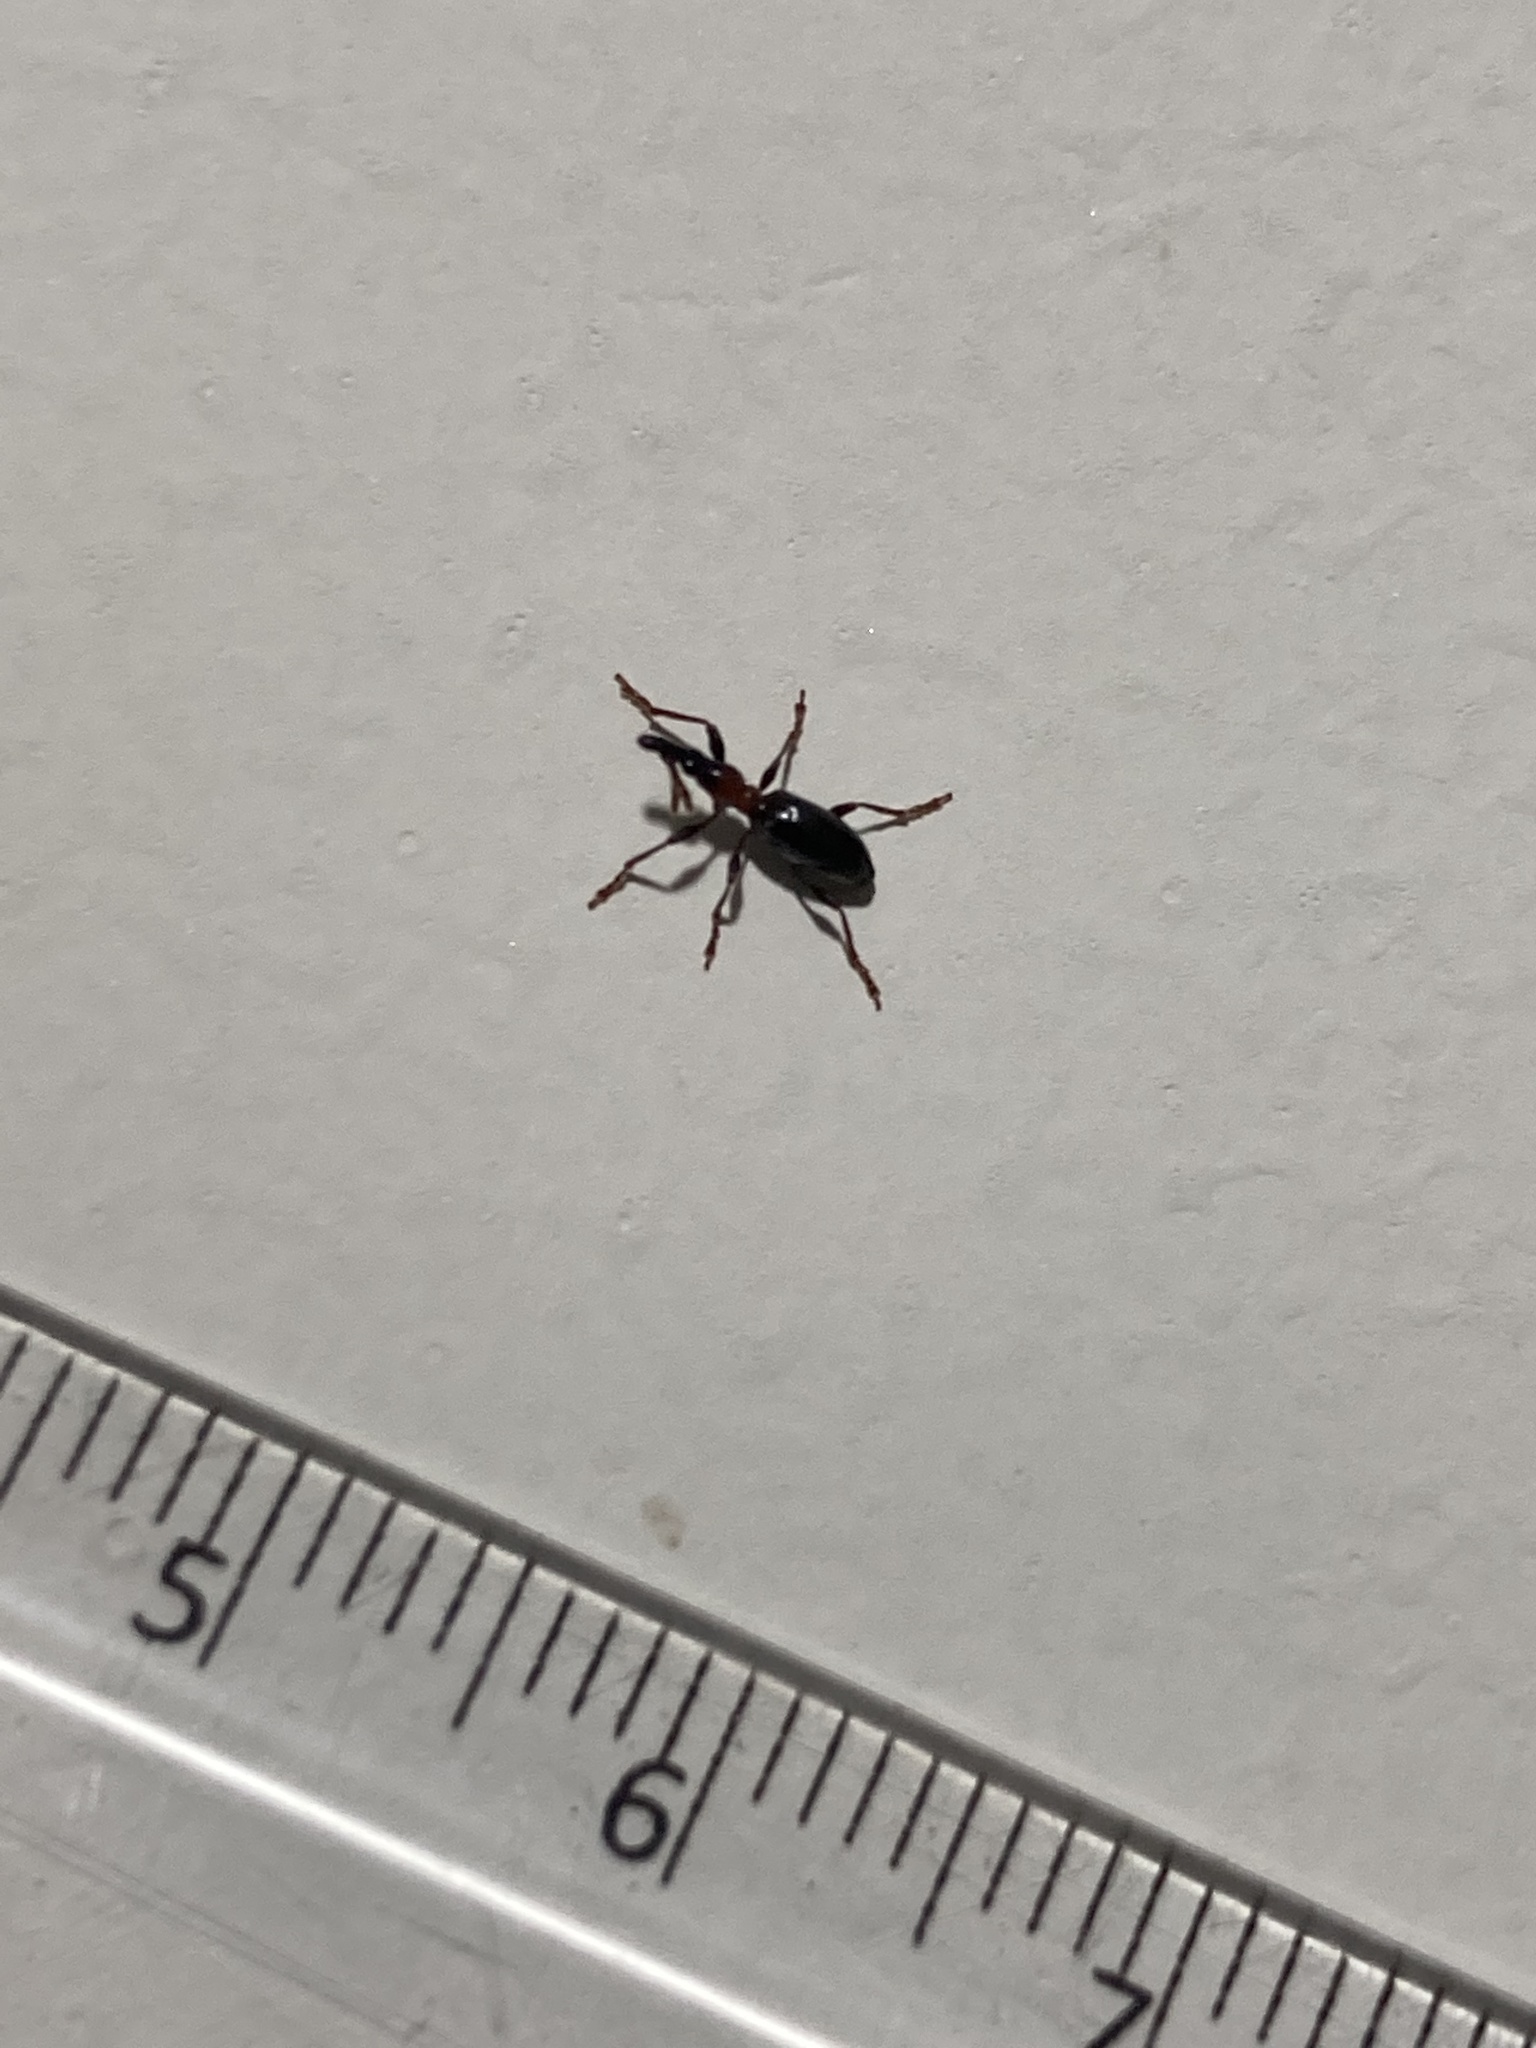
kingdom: Animalia
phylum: Arthropoda
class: Insecta
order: Coleoptera
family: Brentidae
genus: Cylas
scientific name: Cylas formicarius
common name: Sweetpotato weevil
